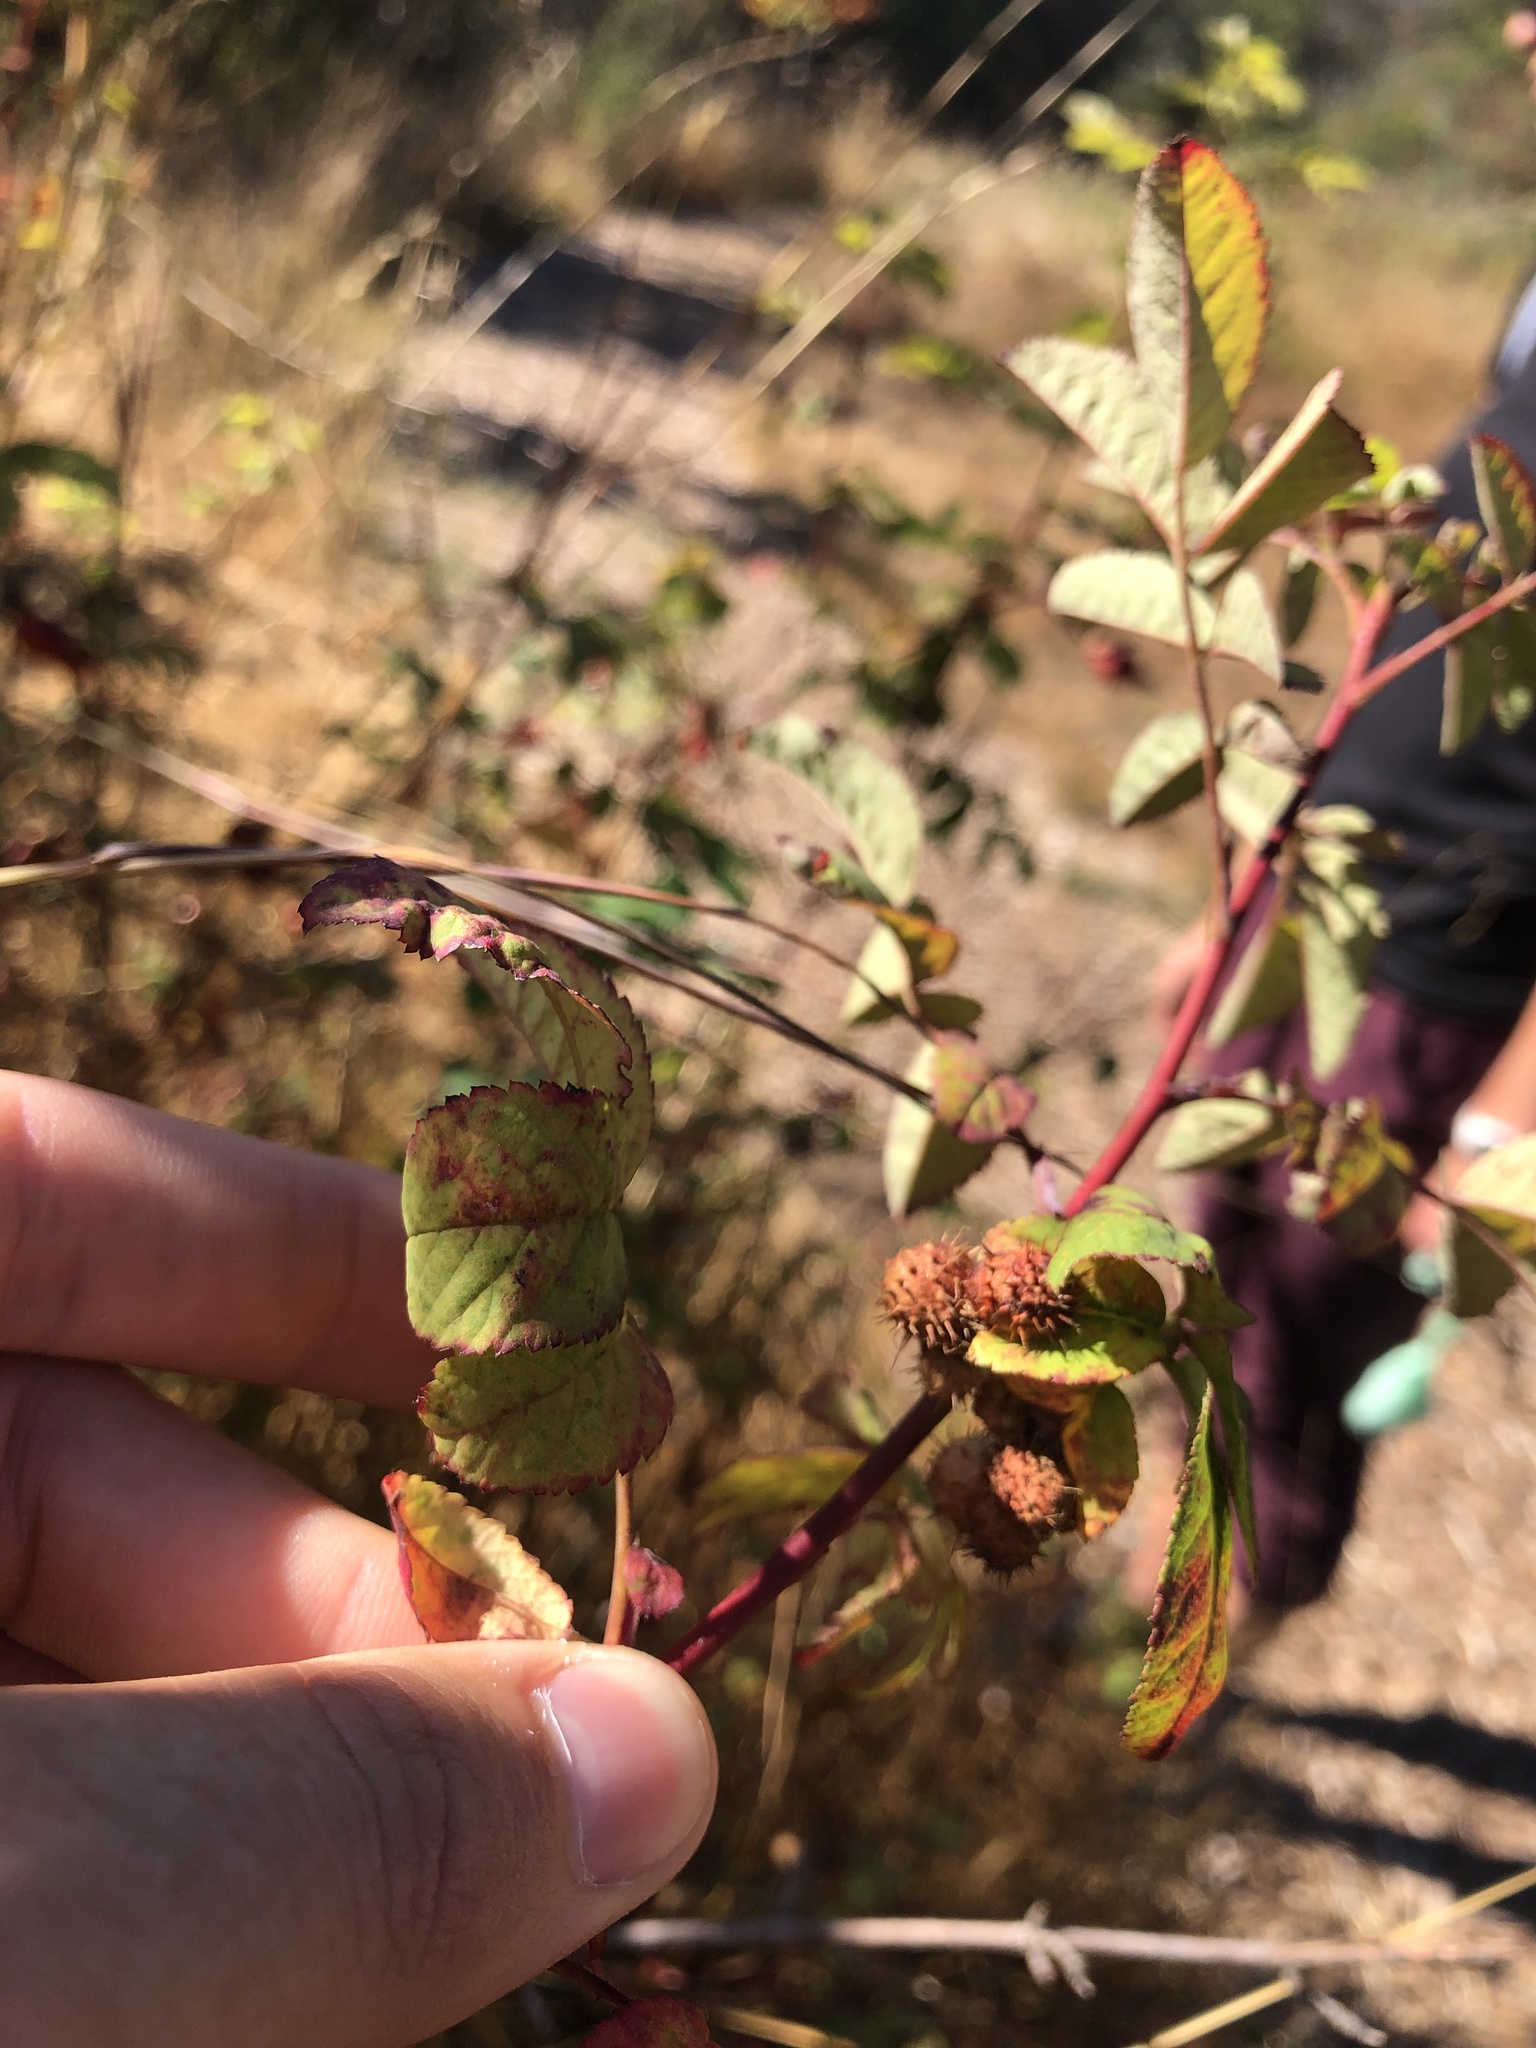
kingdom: Animalia
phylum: Arthropoda
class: Insecta
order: Hymenoptera
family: Cynipidae
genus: Diplolepis
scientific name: Diplolepis polita
